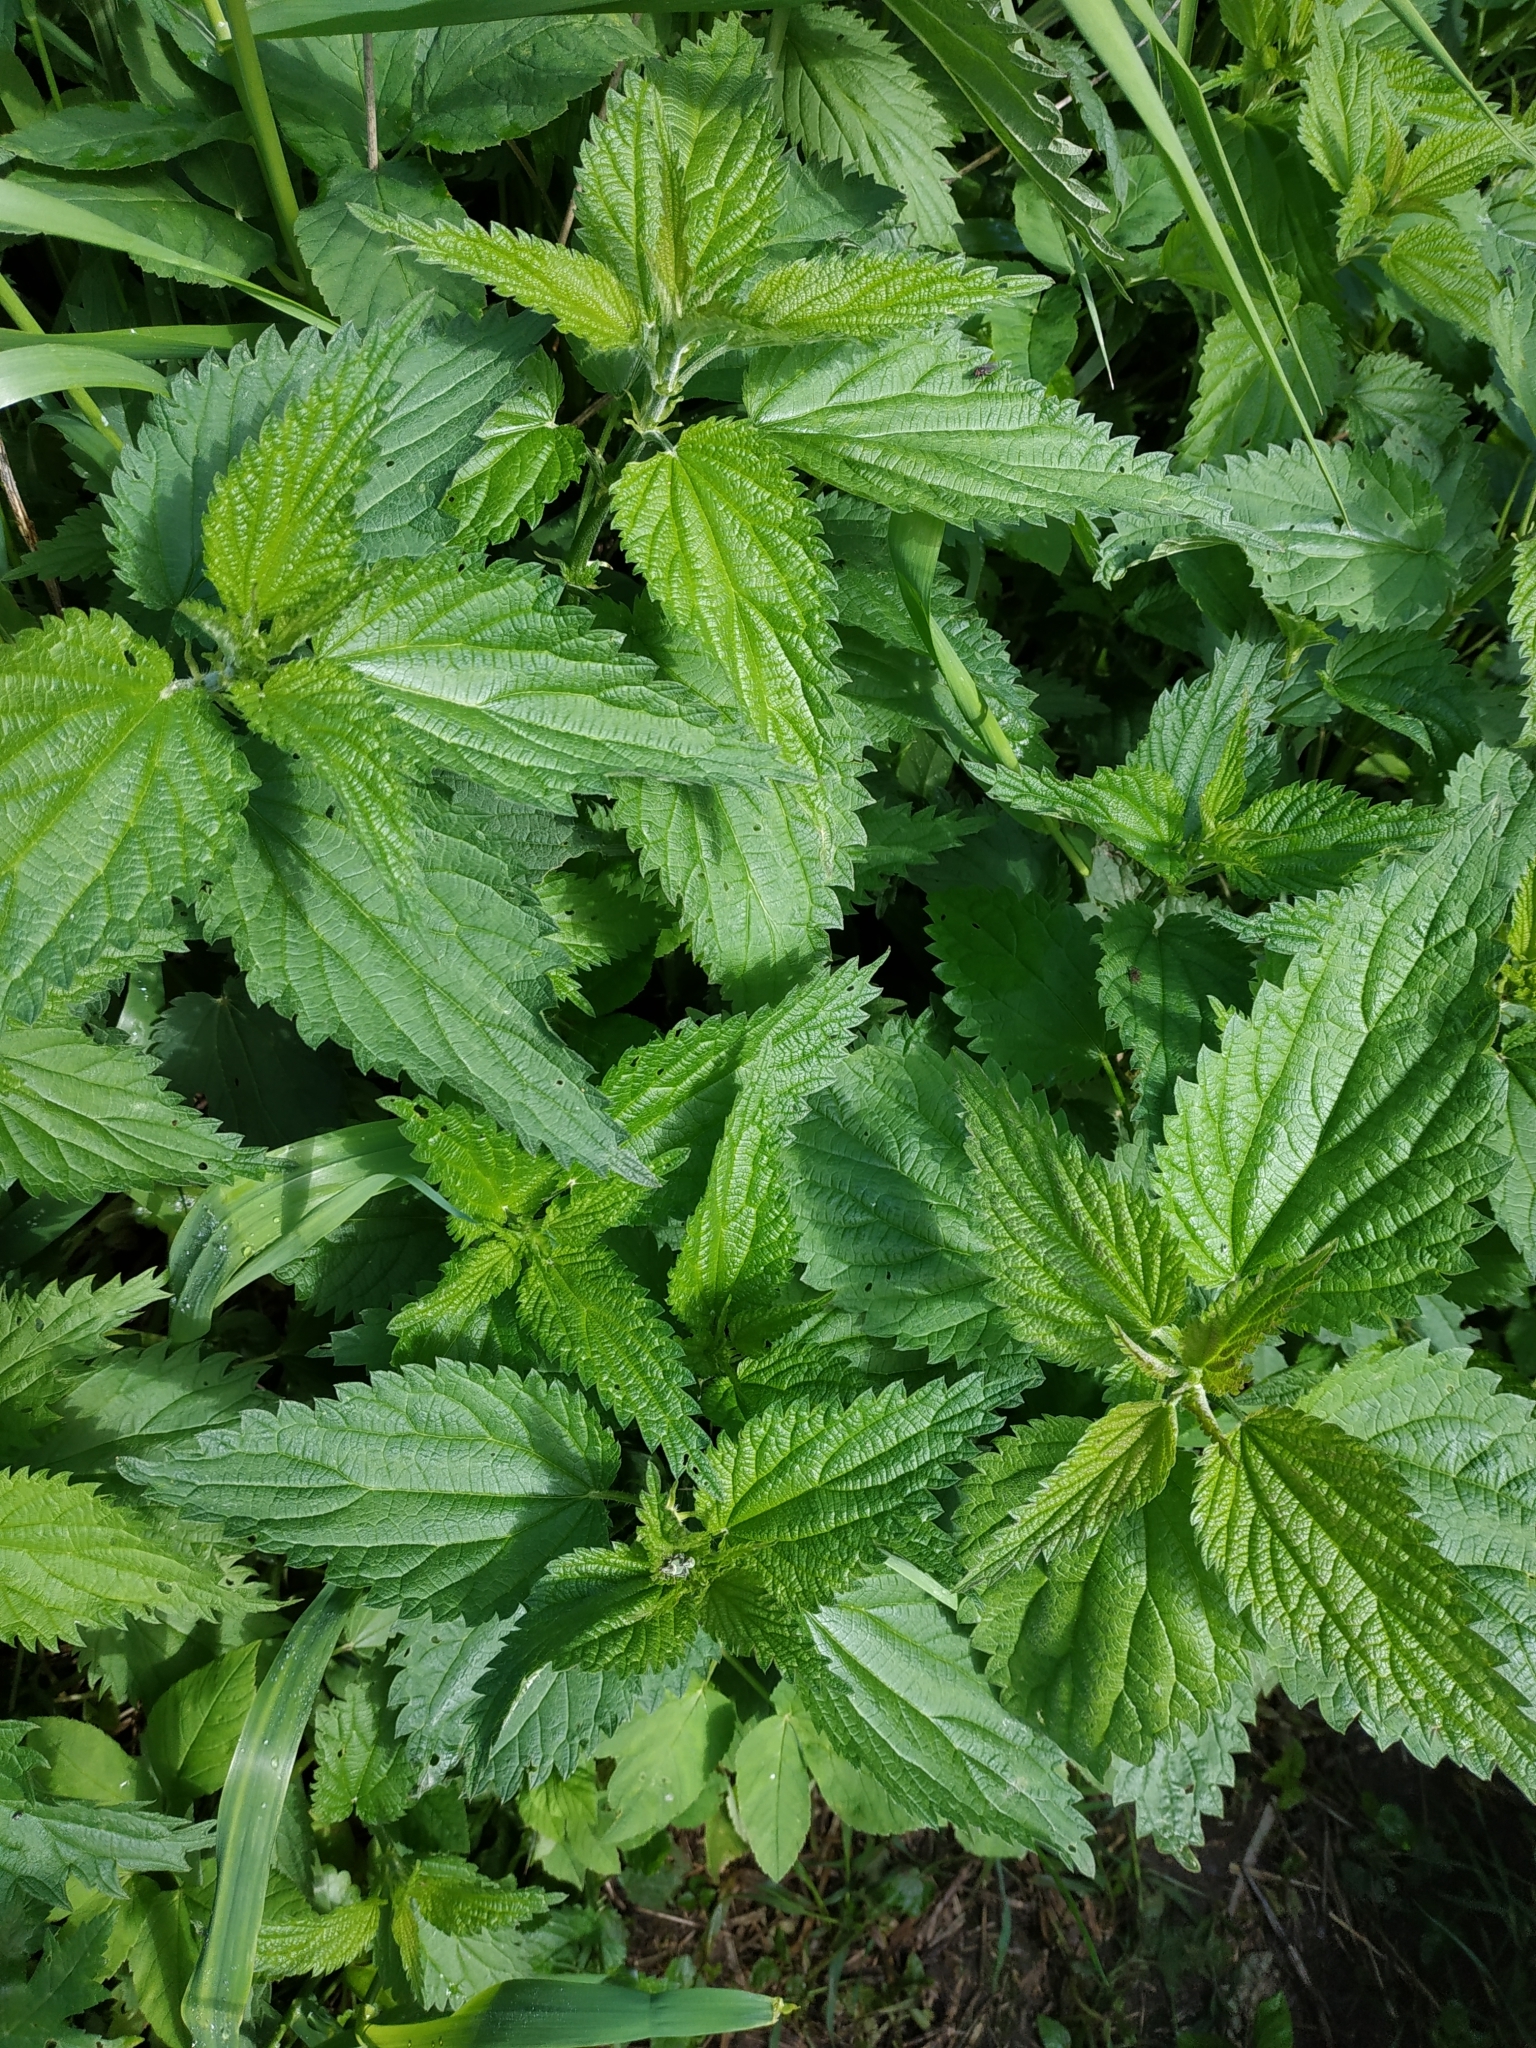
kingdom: Plantae
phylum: Tracheophyta
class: Magnoliopsida
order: Rosales
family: Urticaceae
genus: Urtica
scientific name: Urtica dioica
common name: Common nettle
